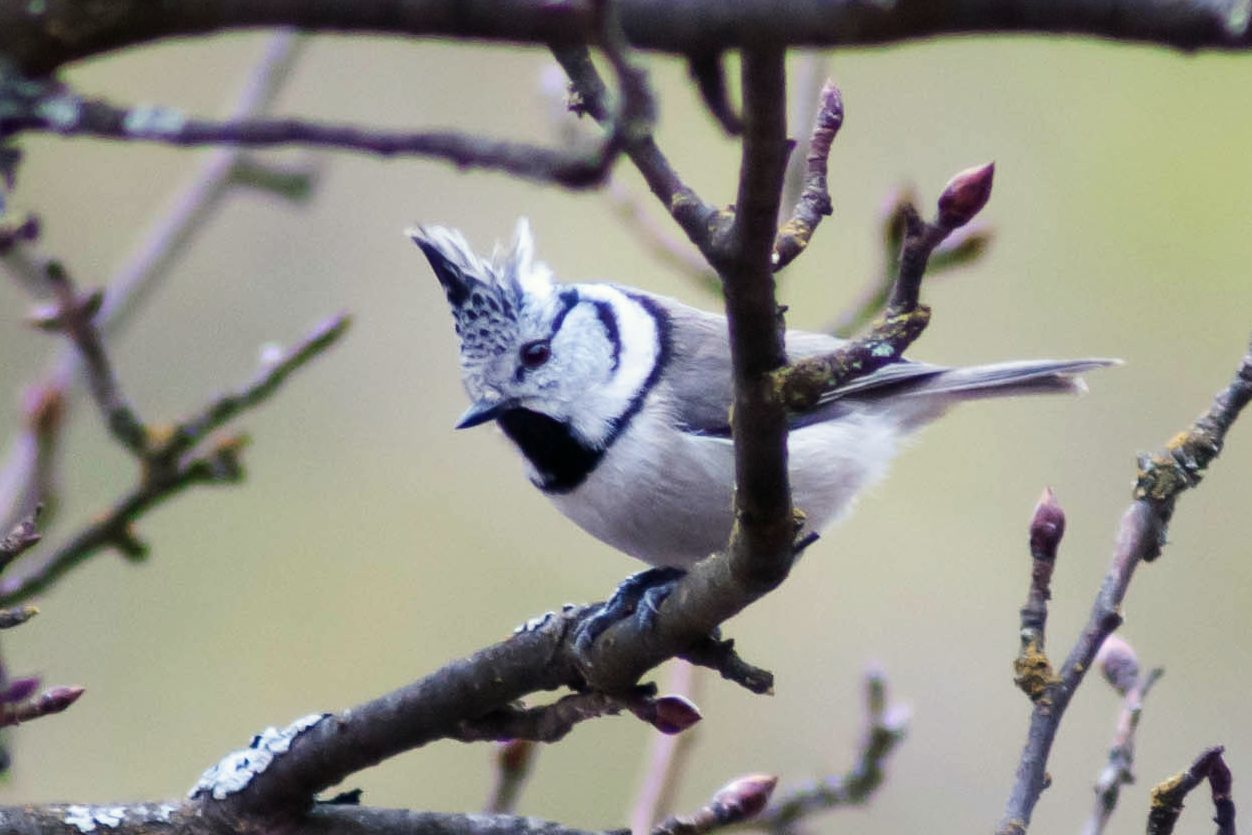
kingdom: Animalia
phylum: Chordata
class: Aves
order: Passeriformes
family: Paridae
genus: Lophophanes
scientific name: Lophophanes cristatus
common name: European crested tit
